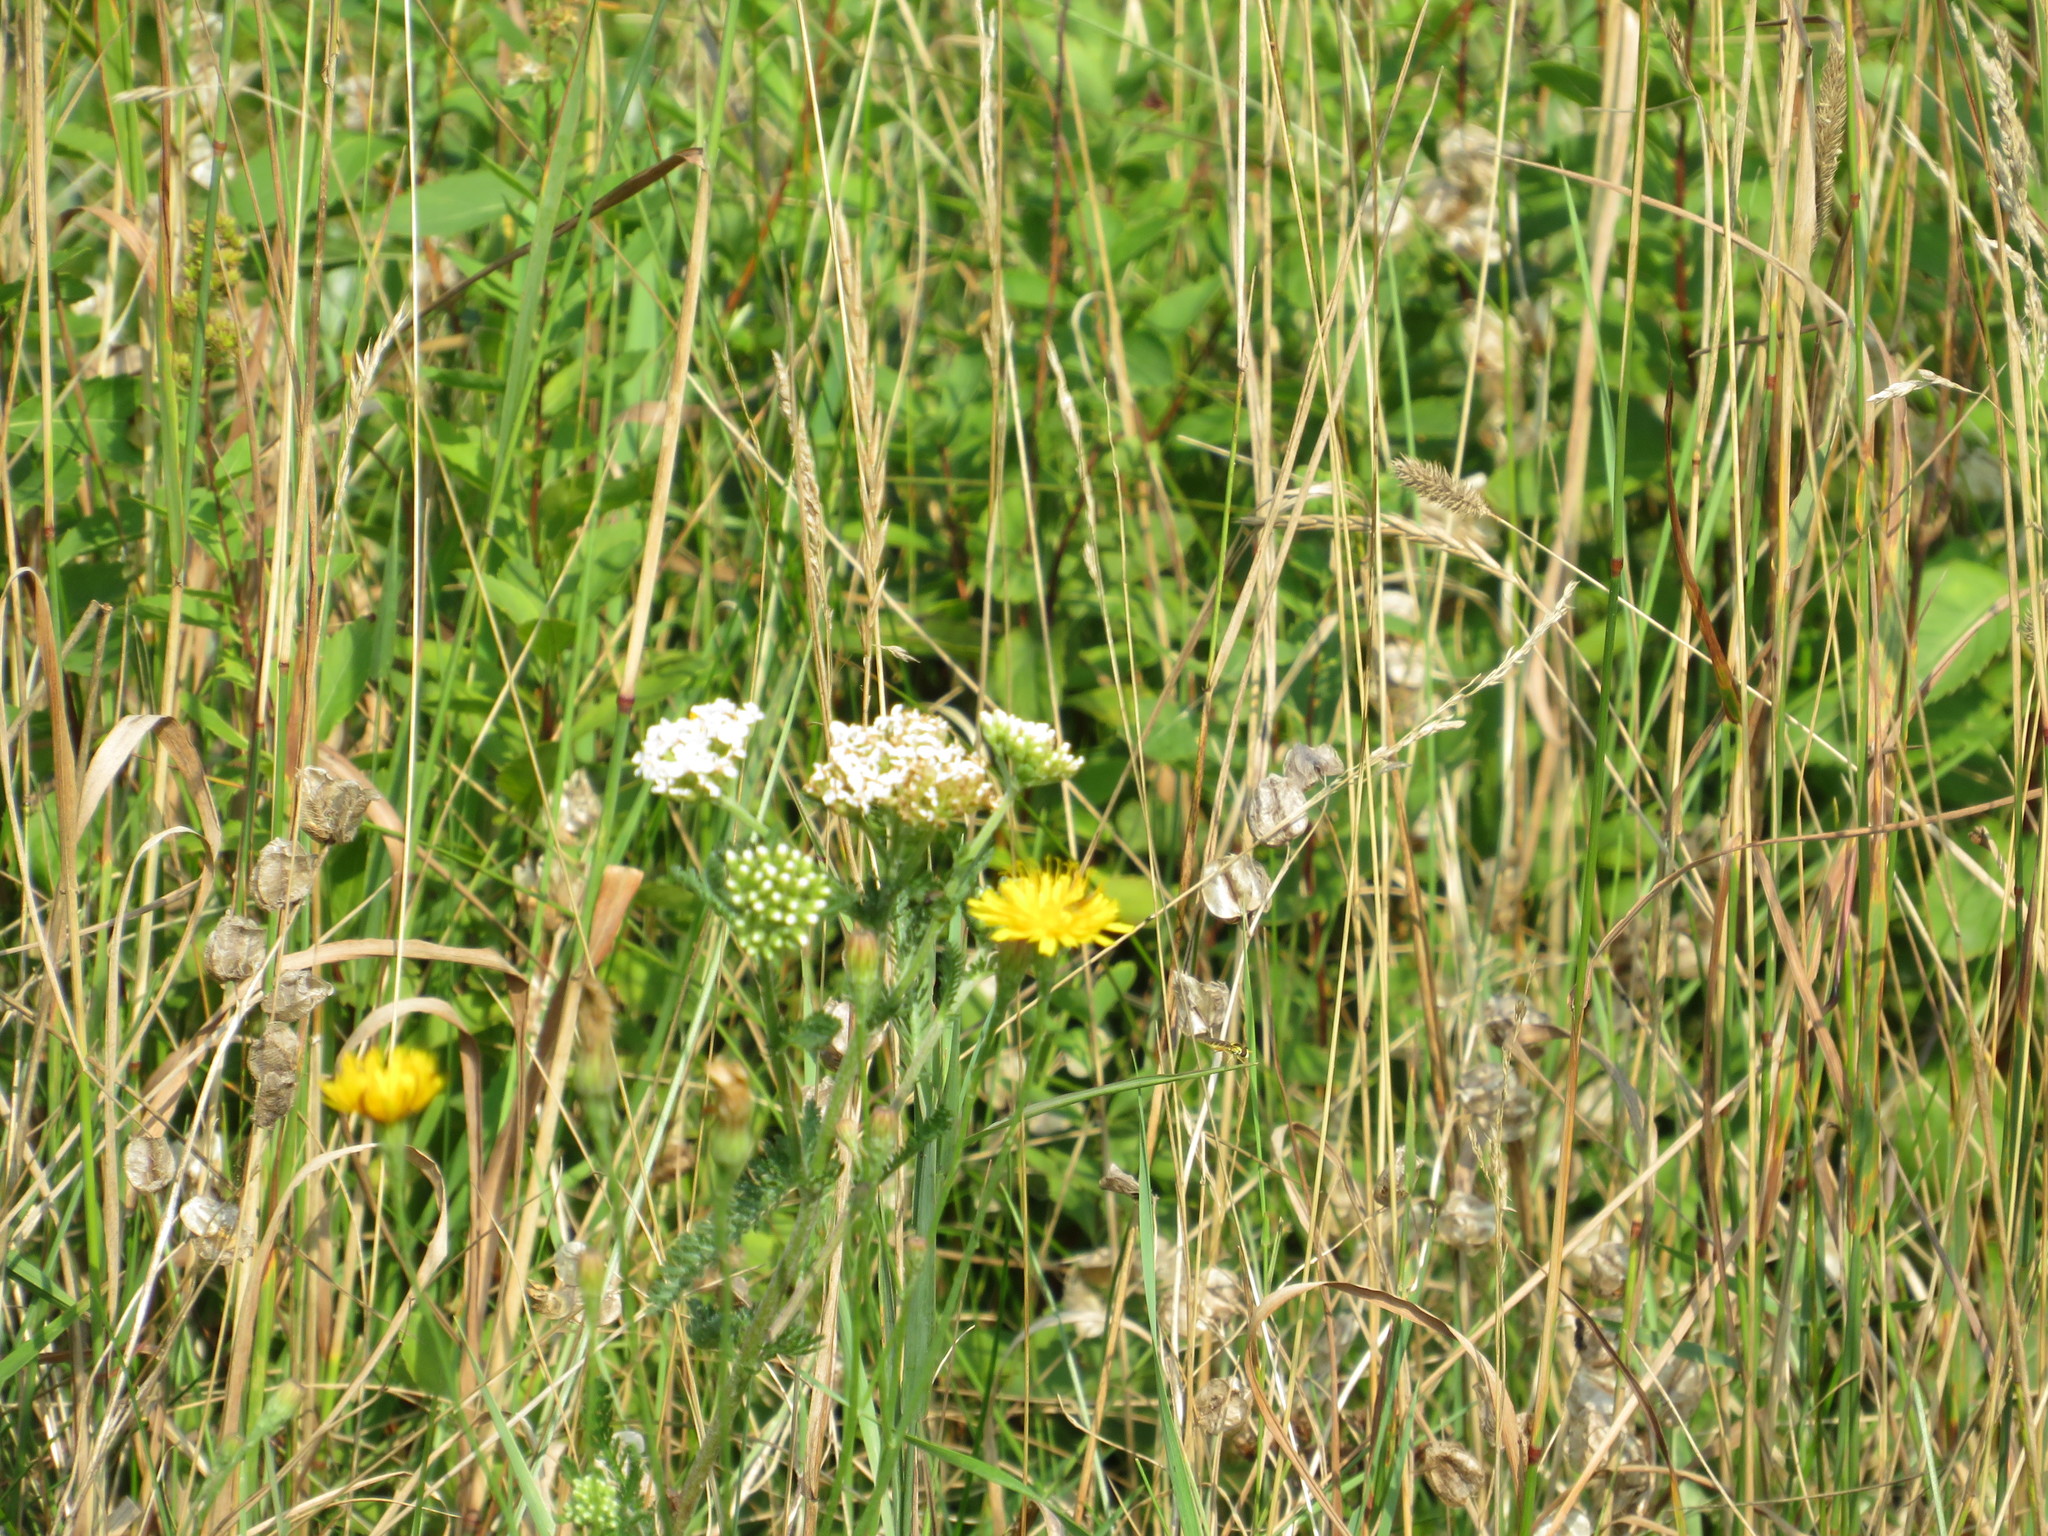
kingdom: Plantae
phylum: Tracheophyta
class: Magnoliopsida
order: Asterales
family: Asteraceae
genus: Achillea
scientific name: Achillea millefolium
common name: Yarrow
